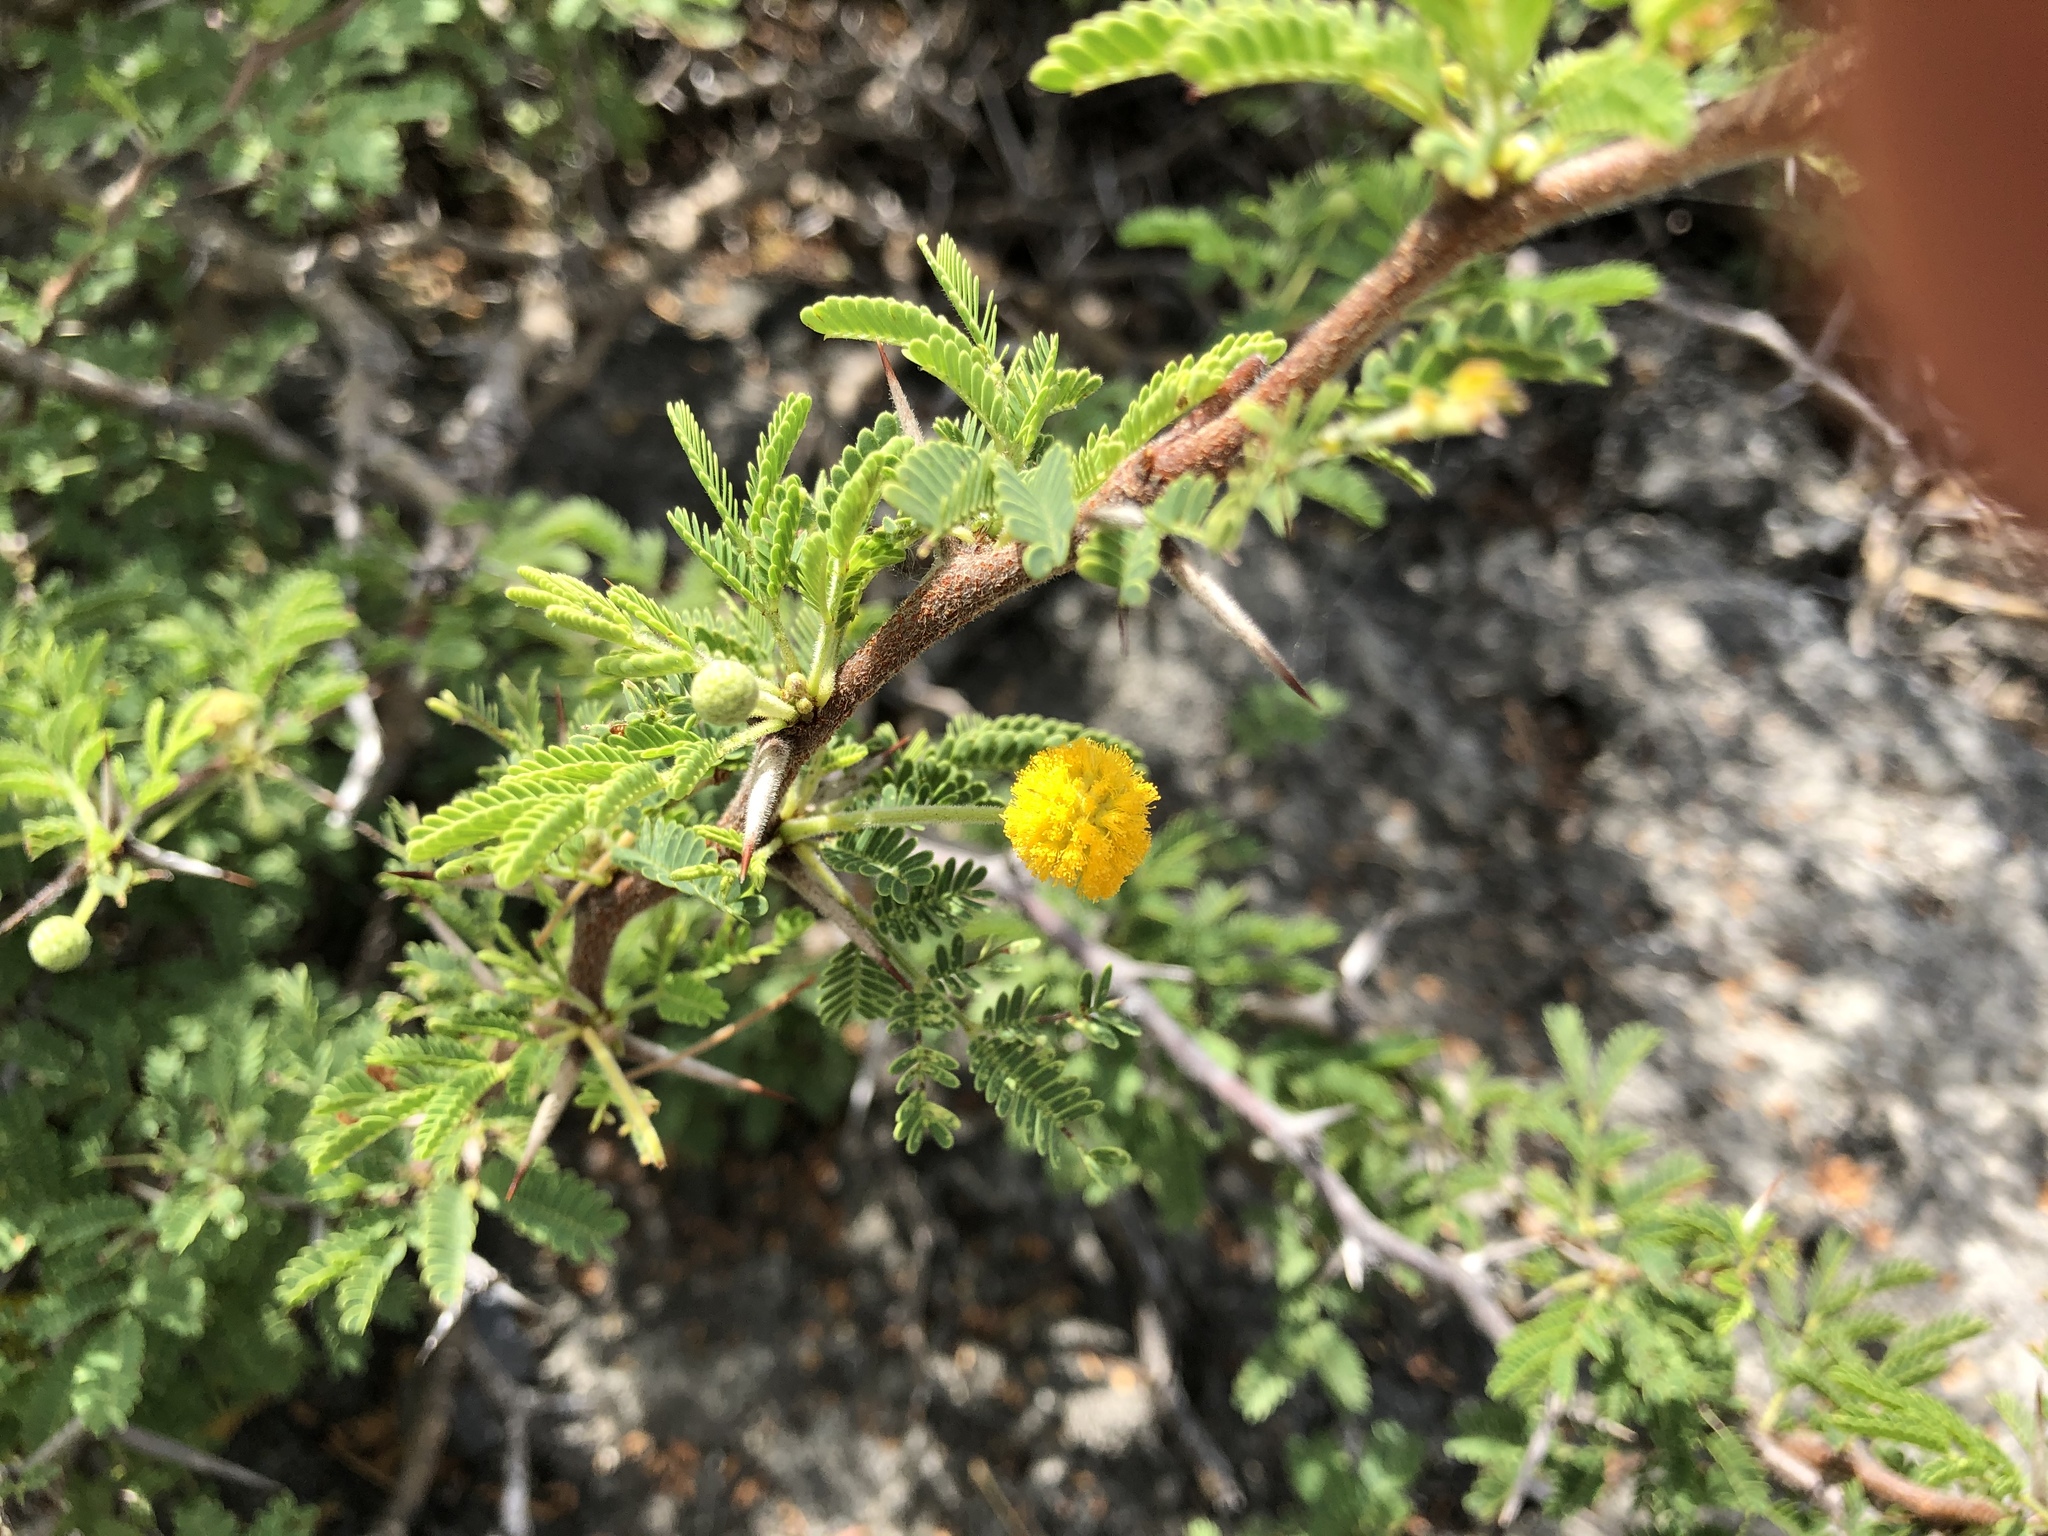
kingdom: Plantae
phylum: Tracheophyta
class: Magnoliopsida
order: Fabales
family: Fabaceae
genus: Vachellia
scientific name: Vachellia tortuosa
